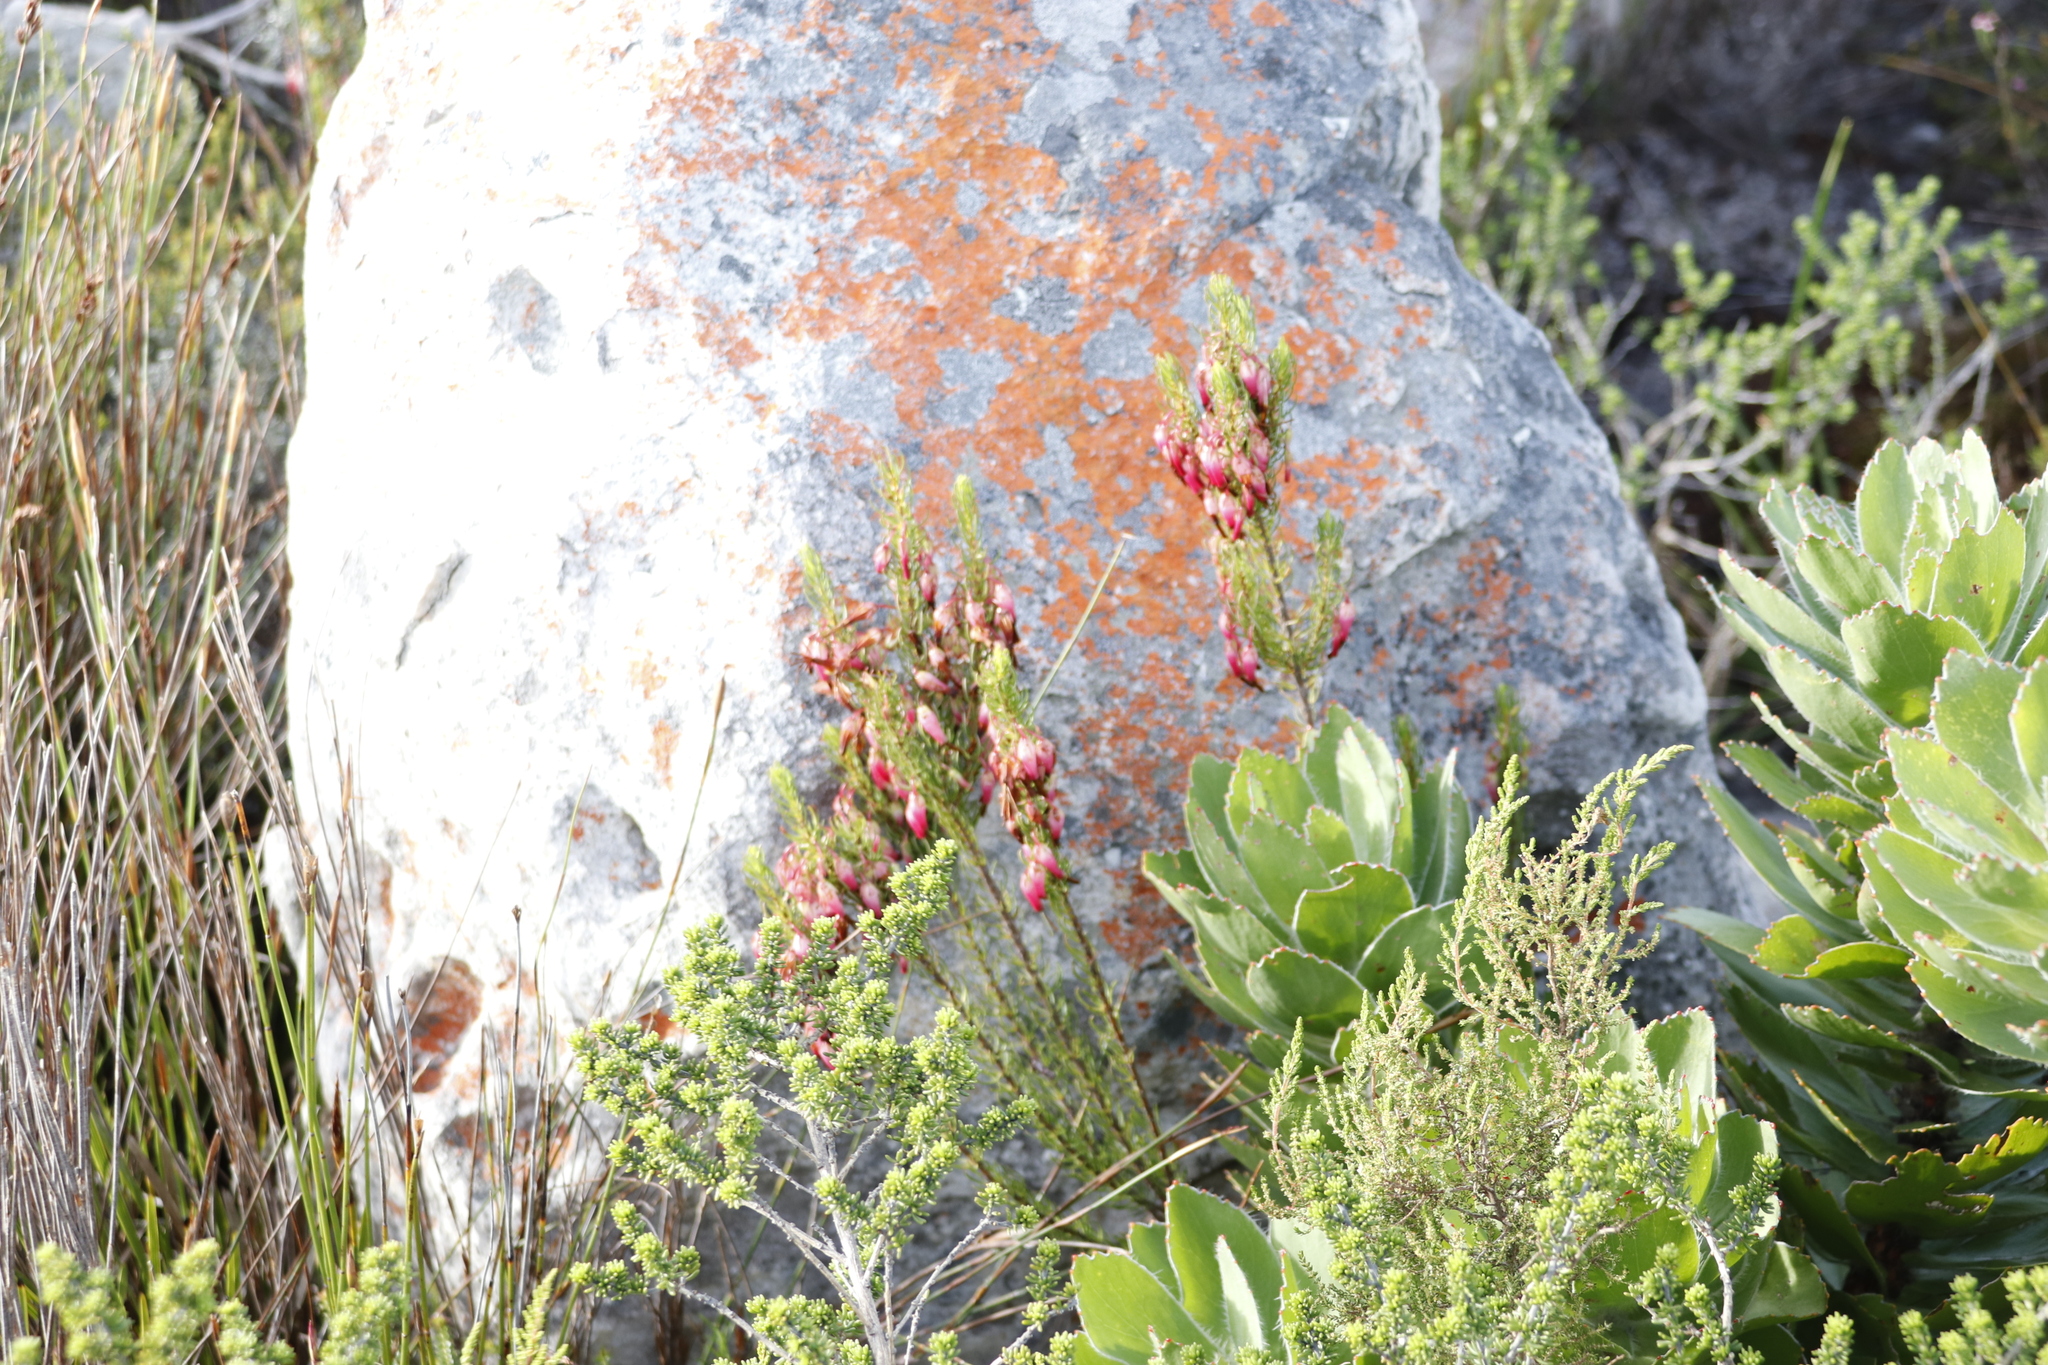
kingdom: Plantae
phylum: Tracheophyta
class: Magnoliopsida
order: Ericales
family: Ericaceae
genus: Erica
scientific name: Erica plukenetii
